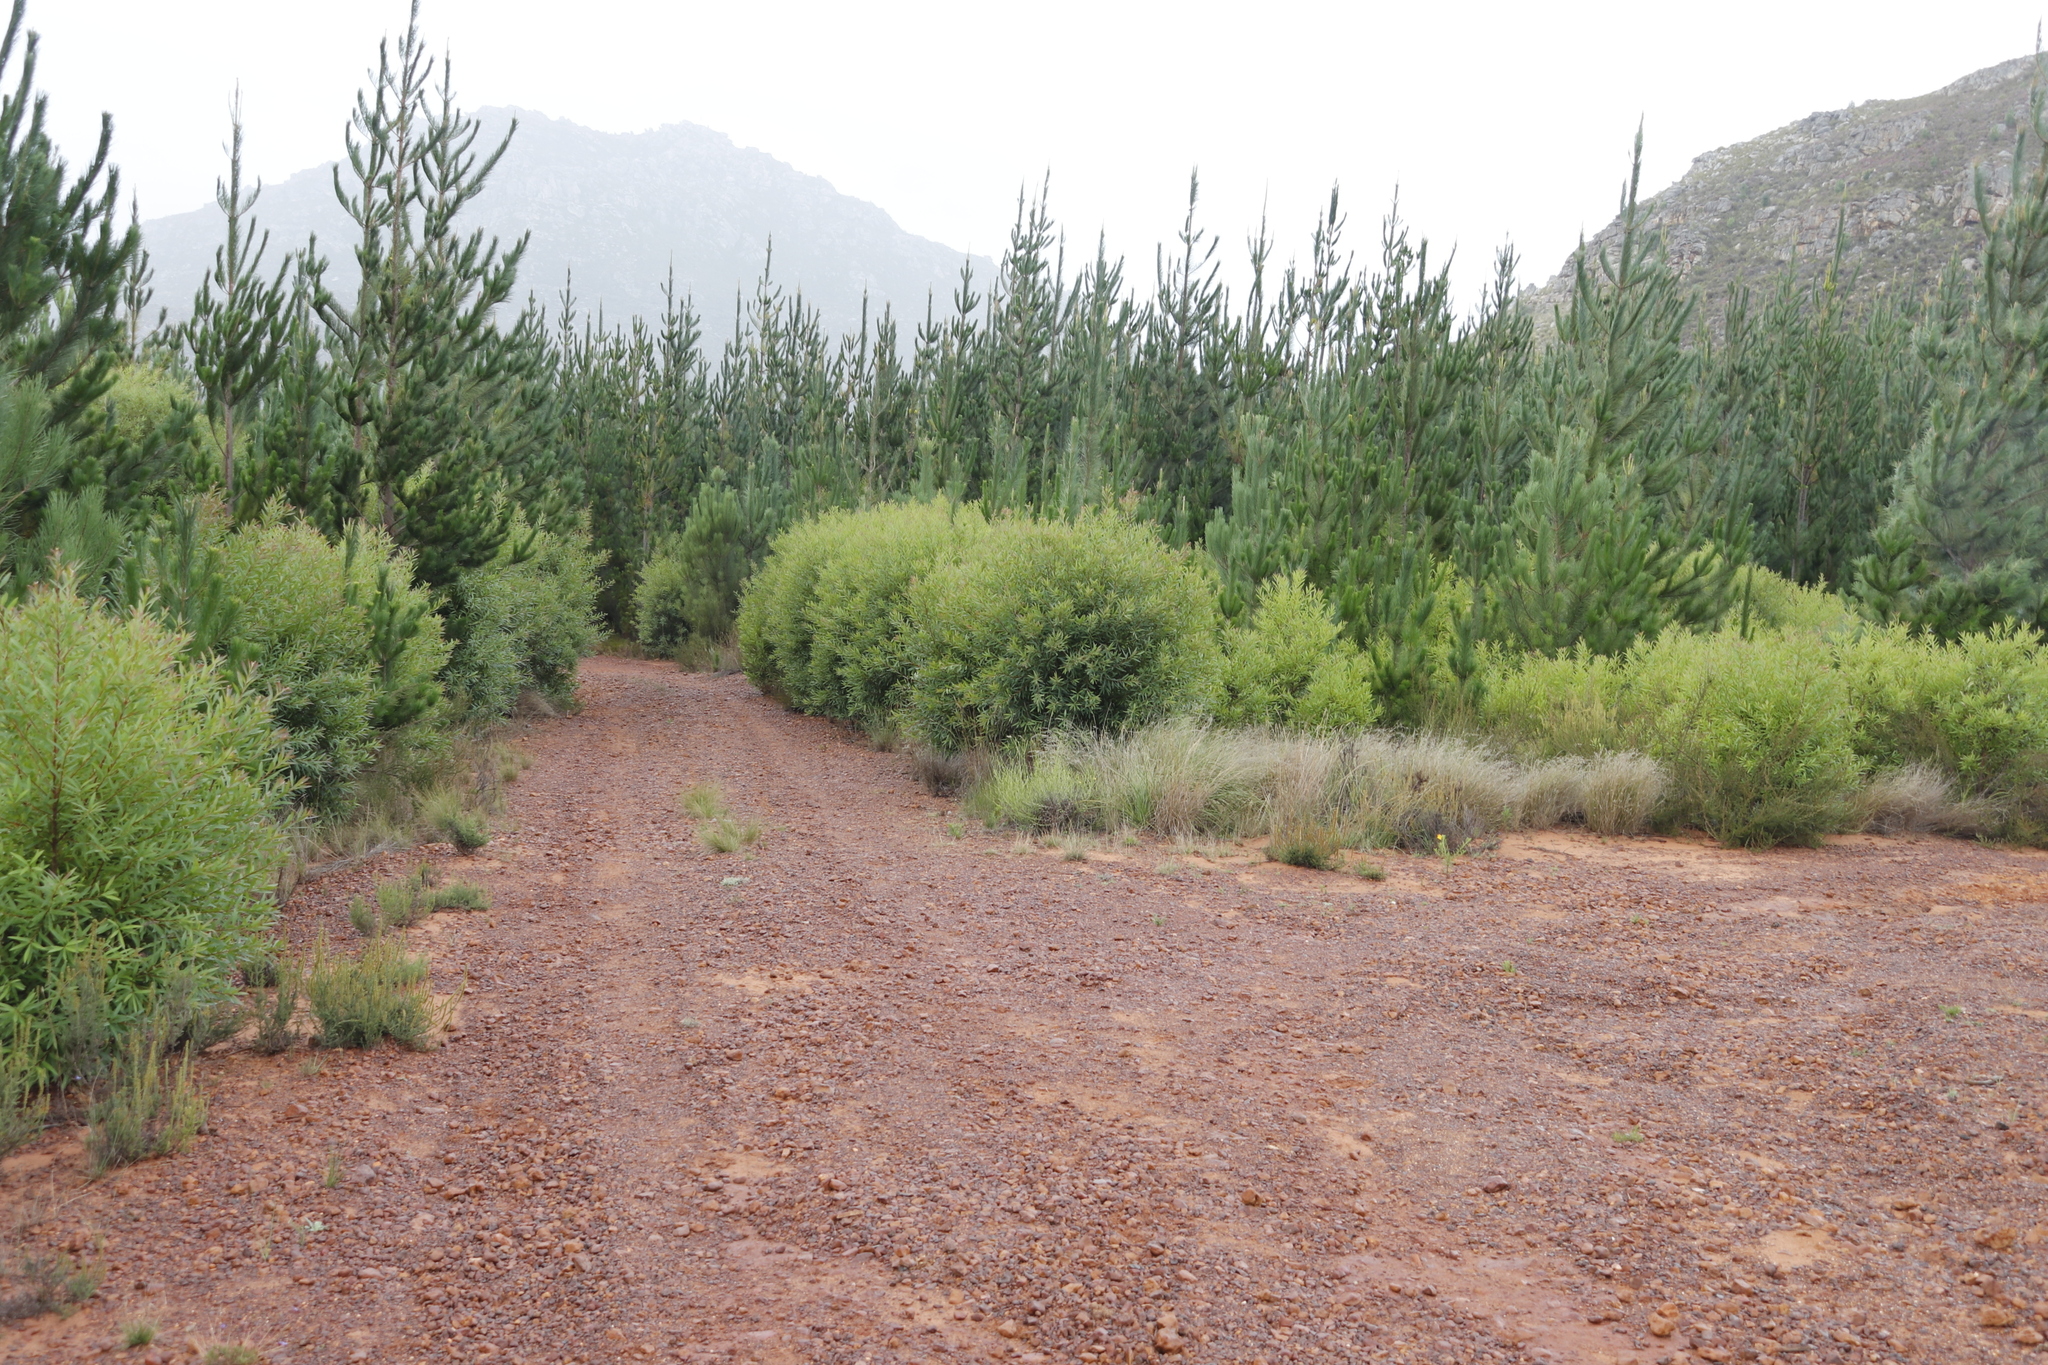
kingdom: Plantae
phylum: Tracheophyta
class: Magnoliopsida
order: Proteales
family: Proteaceae
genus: Hakea
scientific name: Hakea salicifolia
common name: Willow hakea
